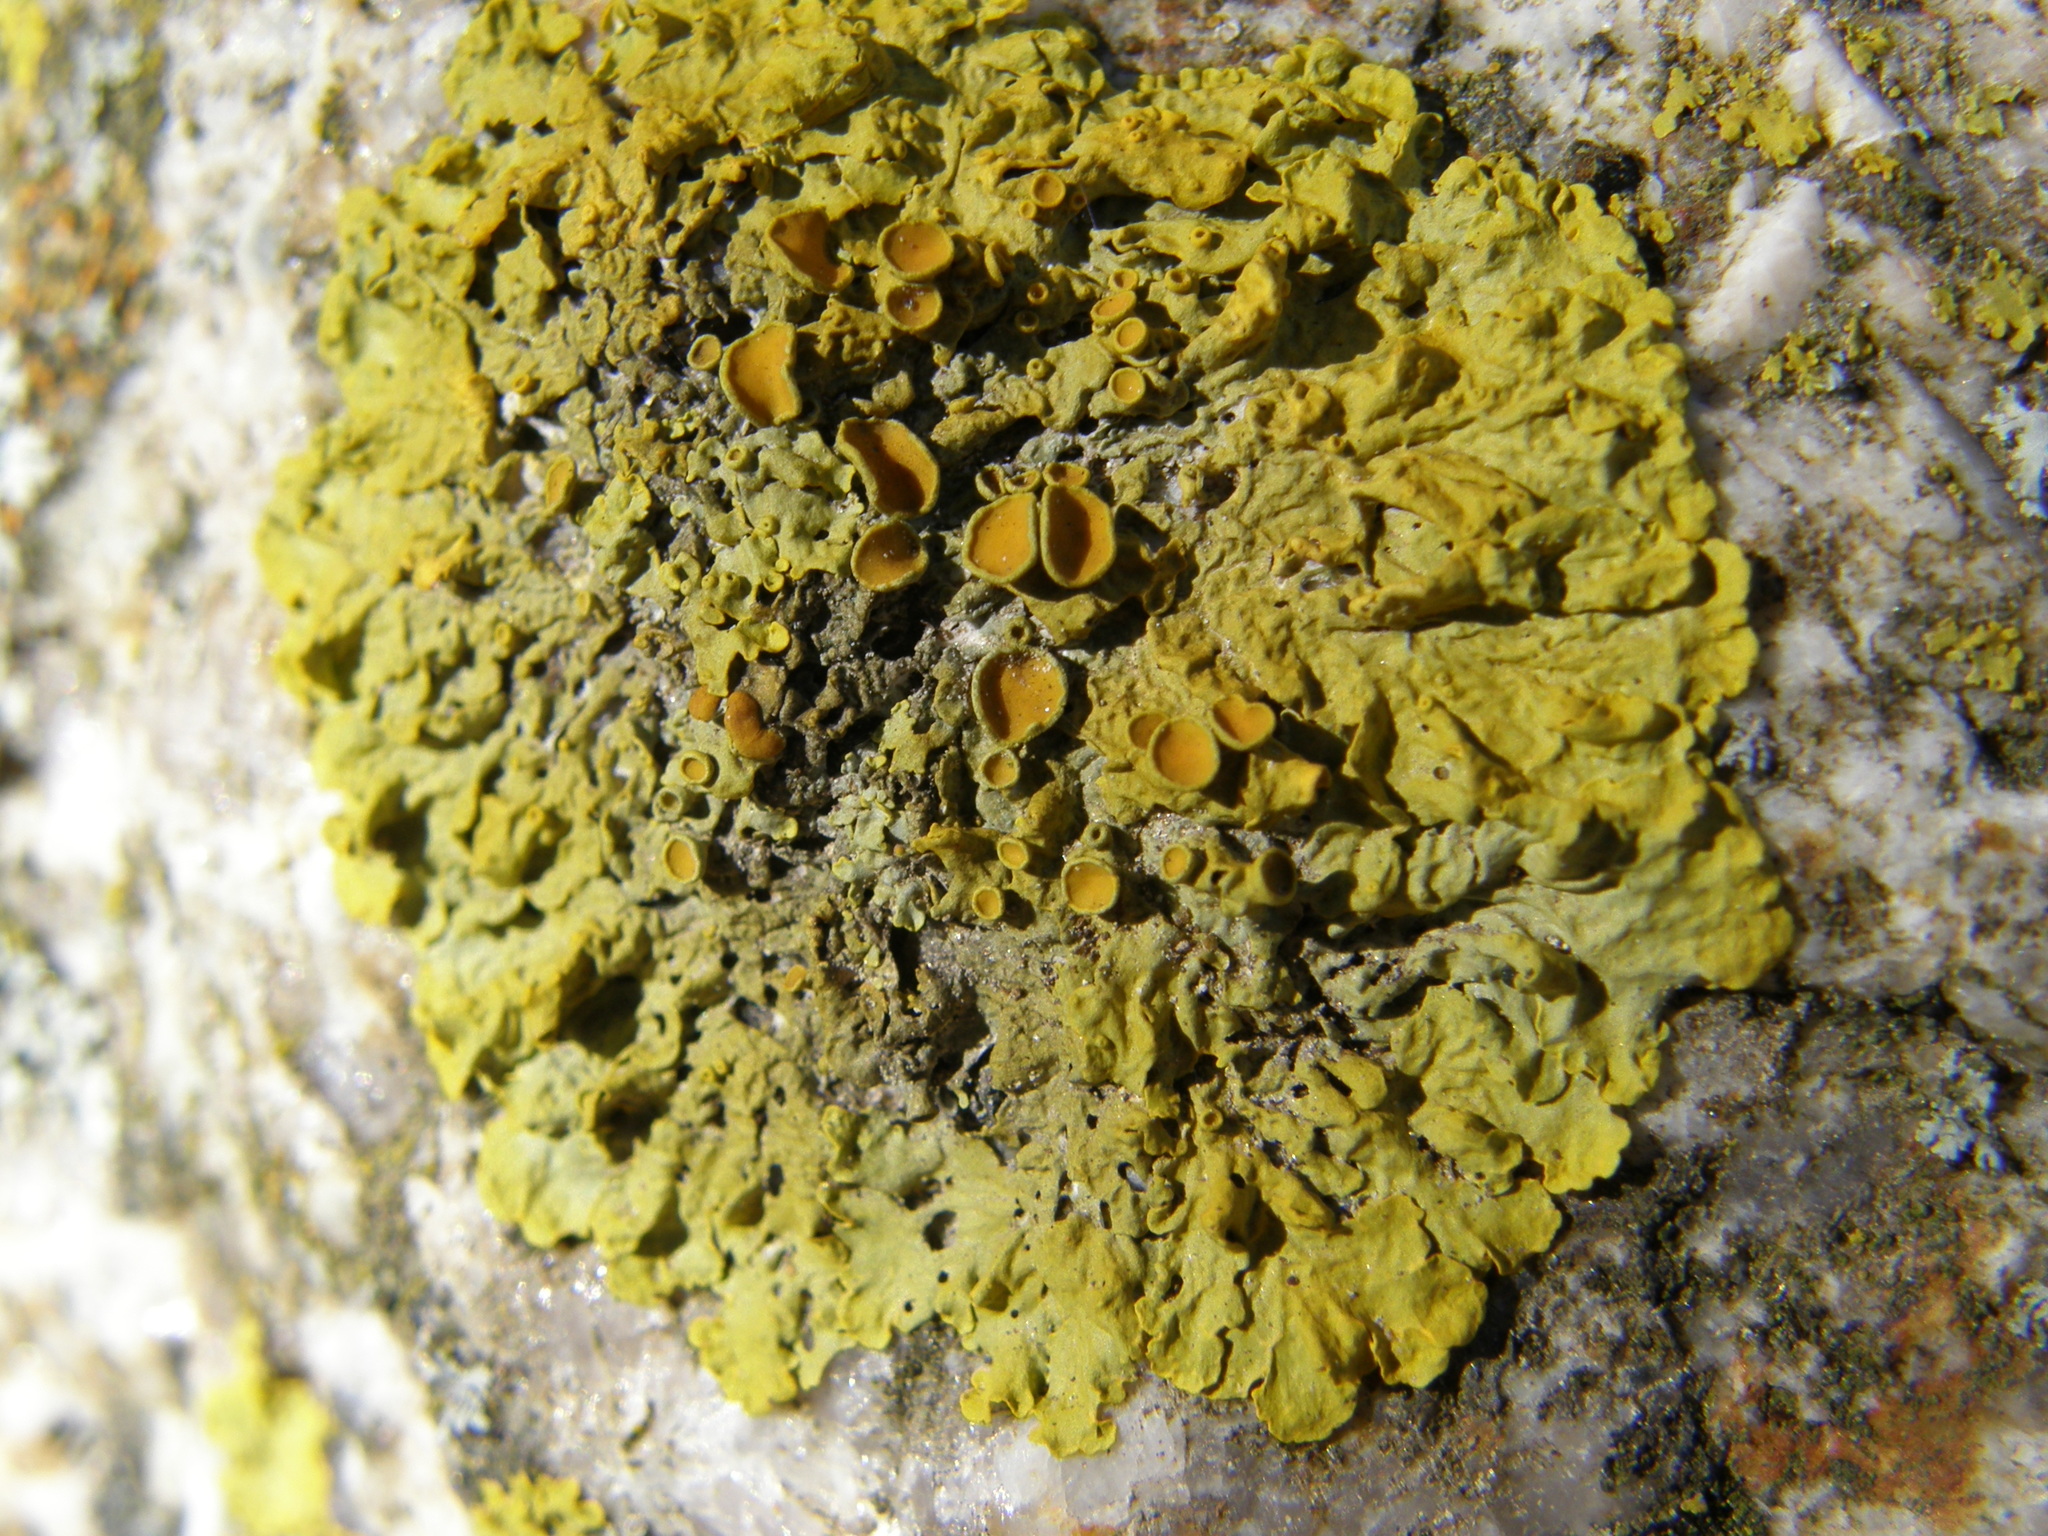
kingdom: Fungi
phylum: Ascomycota
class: Lecanoromycetes
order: Teloschistales
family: Teloschistaceae
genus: Xanthoria
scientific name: Xanthoria parietina
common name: Common orange lichen
